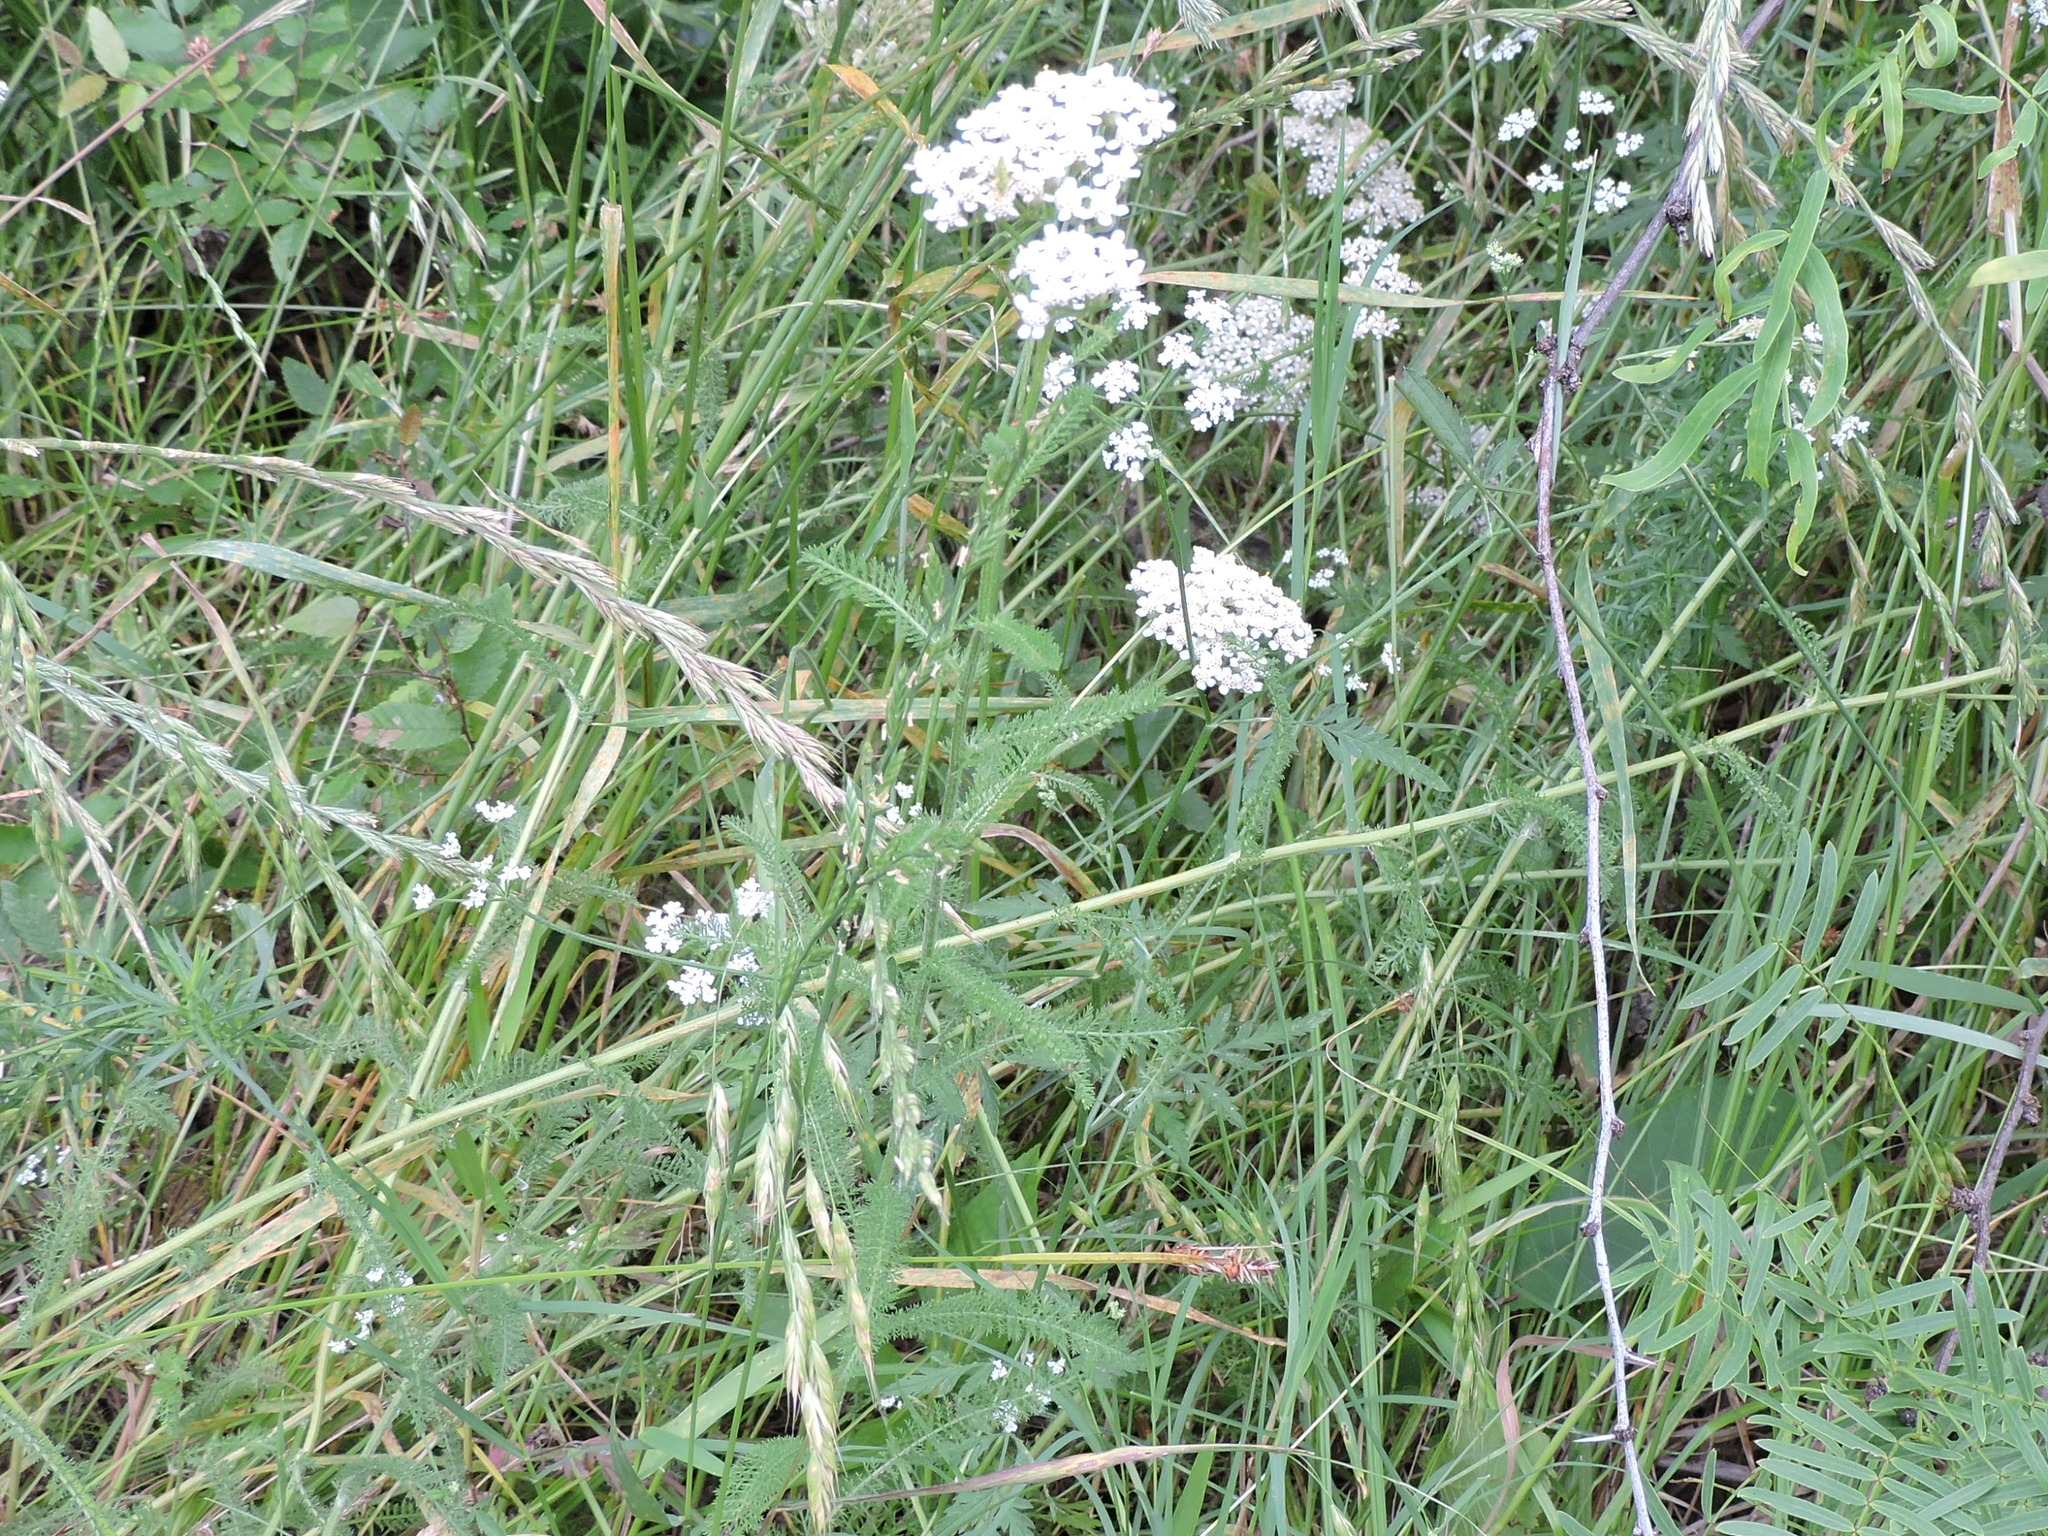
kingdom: Plantae
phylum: Tracheophyta
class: Magnoliopsida
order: Asterales
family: Asteraceae
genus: Achillea
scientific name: Achillea millefolium
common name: Yarrow
